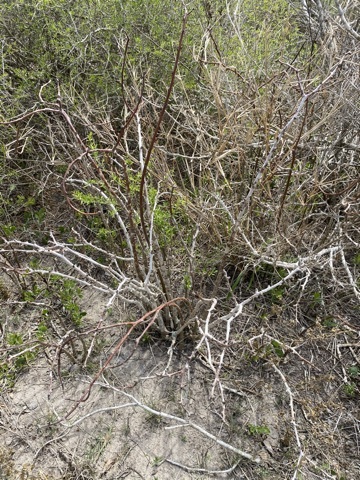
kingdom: Plantae
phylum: Tracheophyta
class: Magnoliopsida
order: Malpighiales
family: Euphorbiaceae
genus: Jatropha
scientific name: Jatropha dioica
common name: Leatherstem
